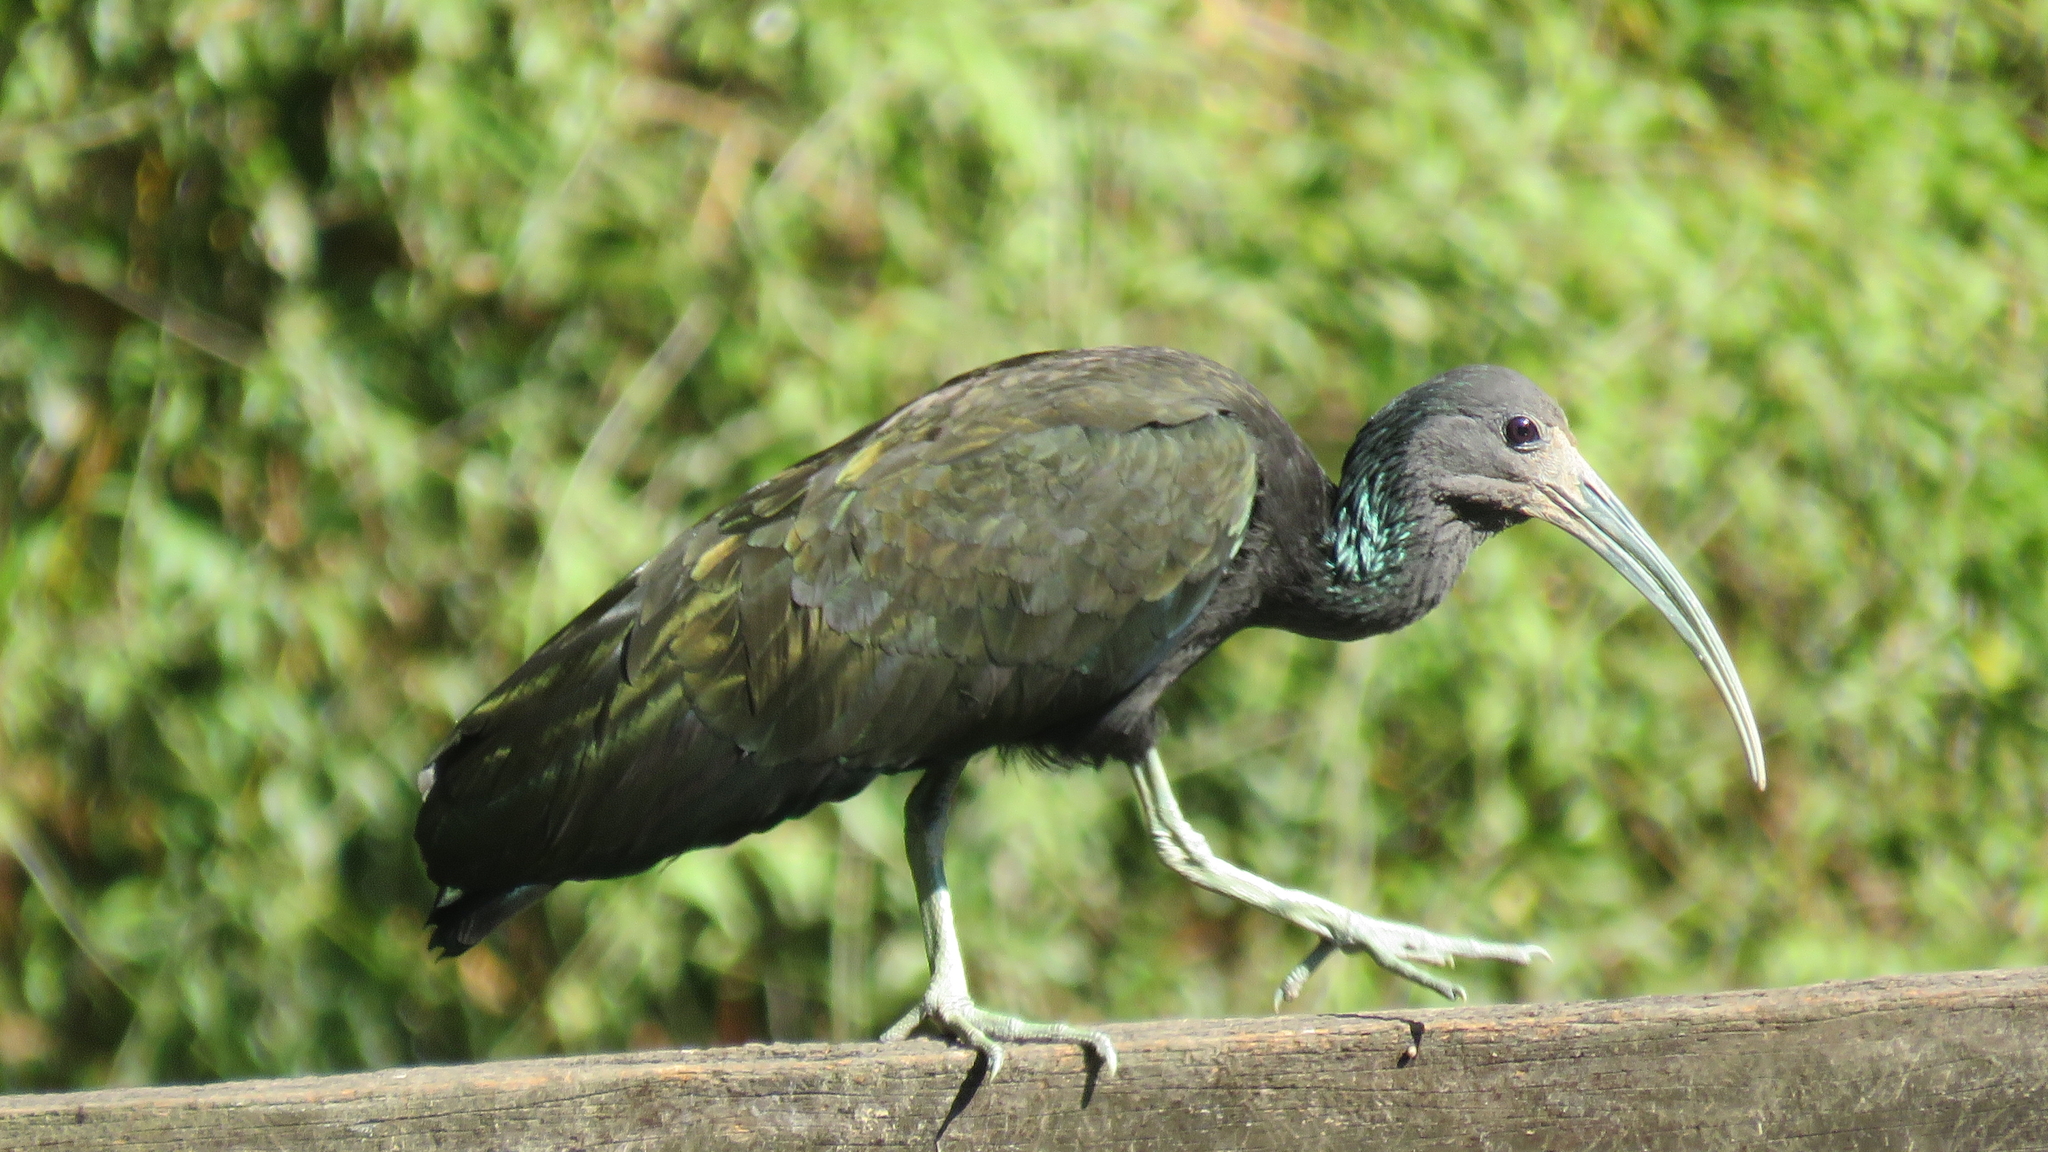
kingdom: Animalia
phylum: Chordata
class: Aves
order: Pelecaniformes
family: Threskiornithidae
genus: Mesembrinibis
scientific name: Mesembrinibis cayennensis
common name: Green ibis
